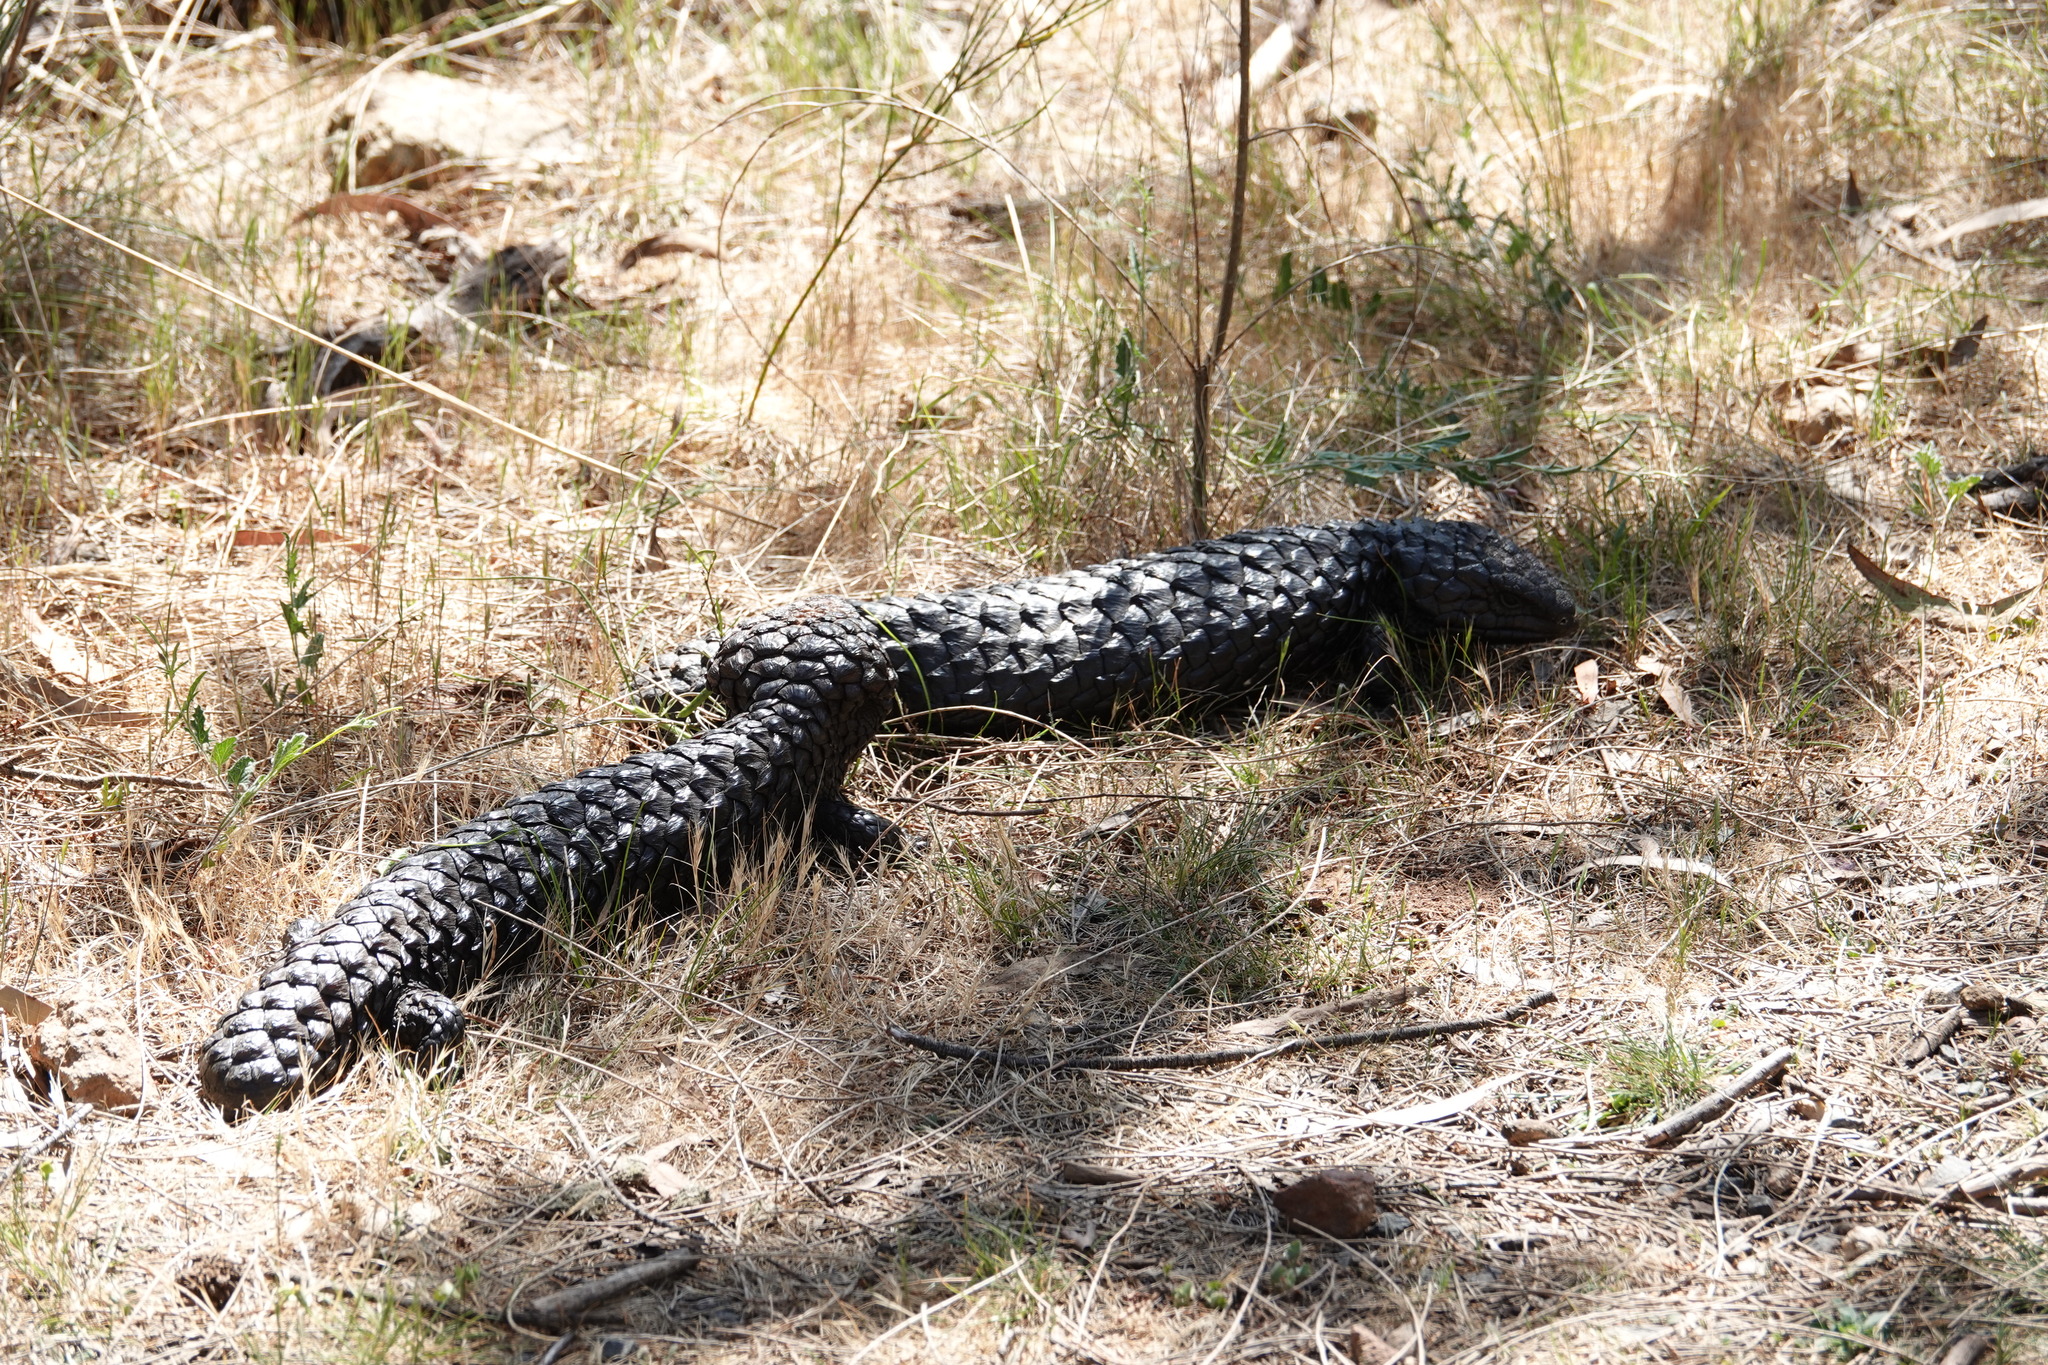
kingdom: Animalia
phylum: Chordata
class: Squamata
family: Scincidae
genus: Tiliqua
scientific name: Tiliqua rugosa
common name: Pinecone lizard
